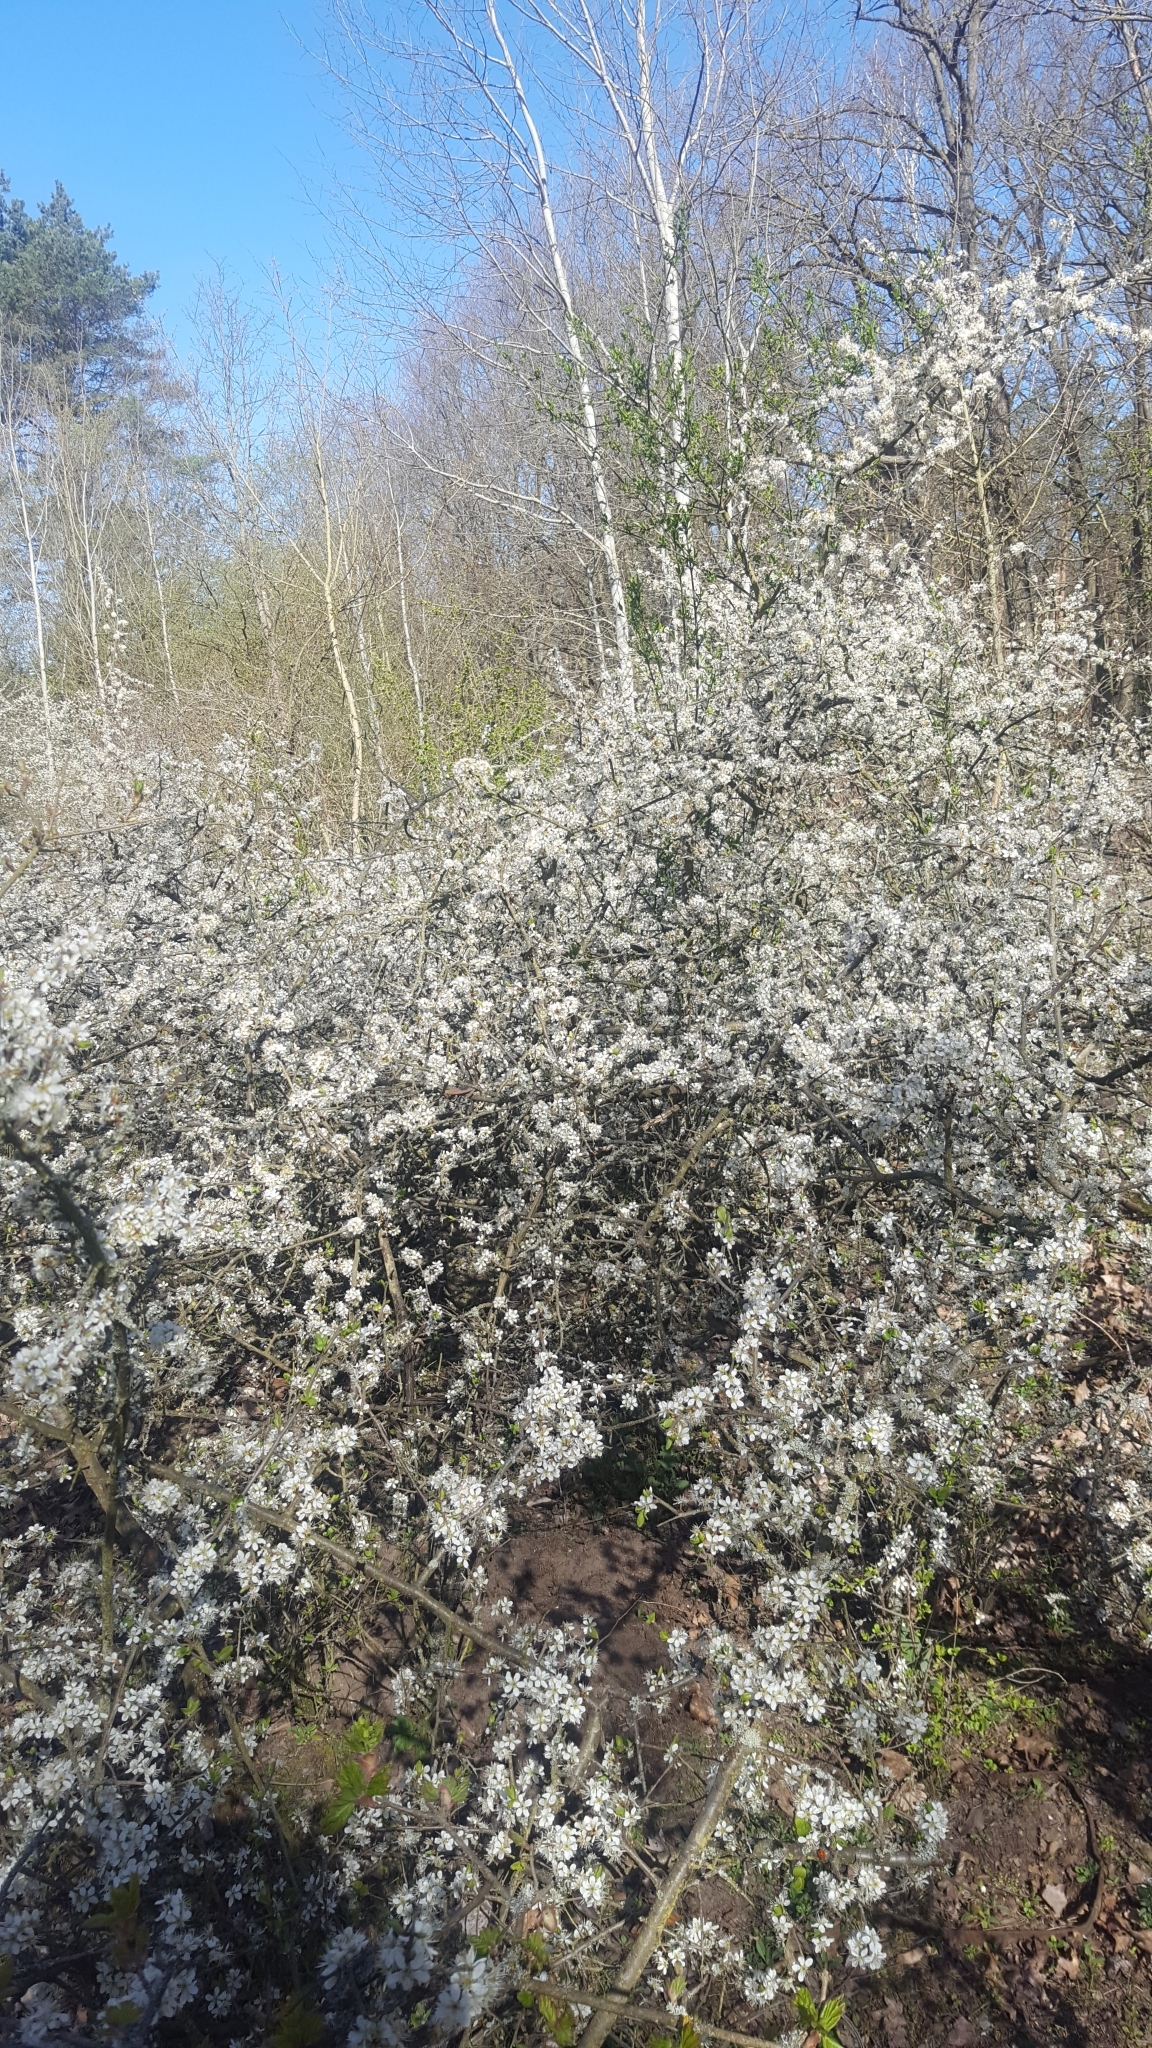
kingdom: Plantae
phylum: Tracheophyta
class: Magnoliopsida
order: Rosales
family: Rosaceae
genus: Prunus
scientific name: Prunus spinosa
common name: Blackthorn
